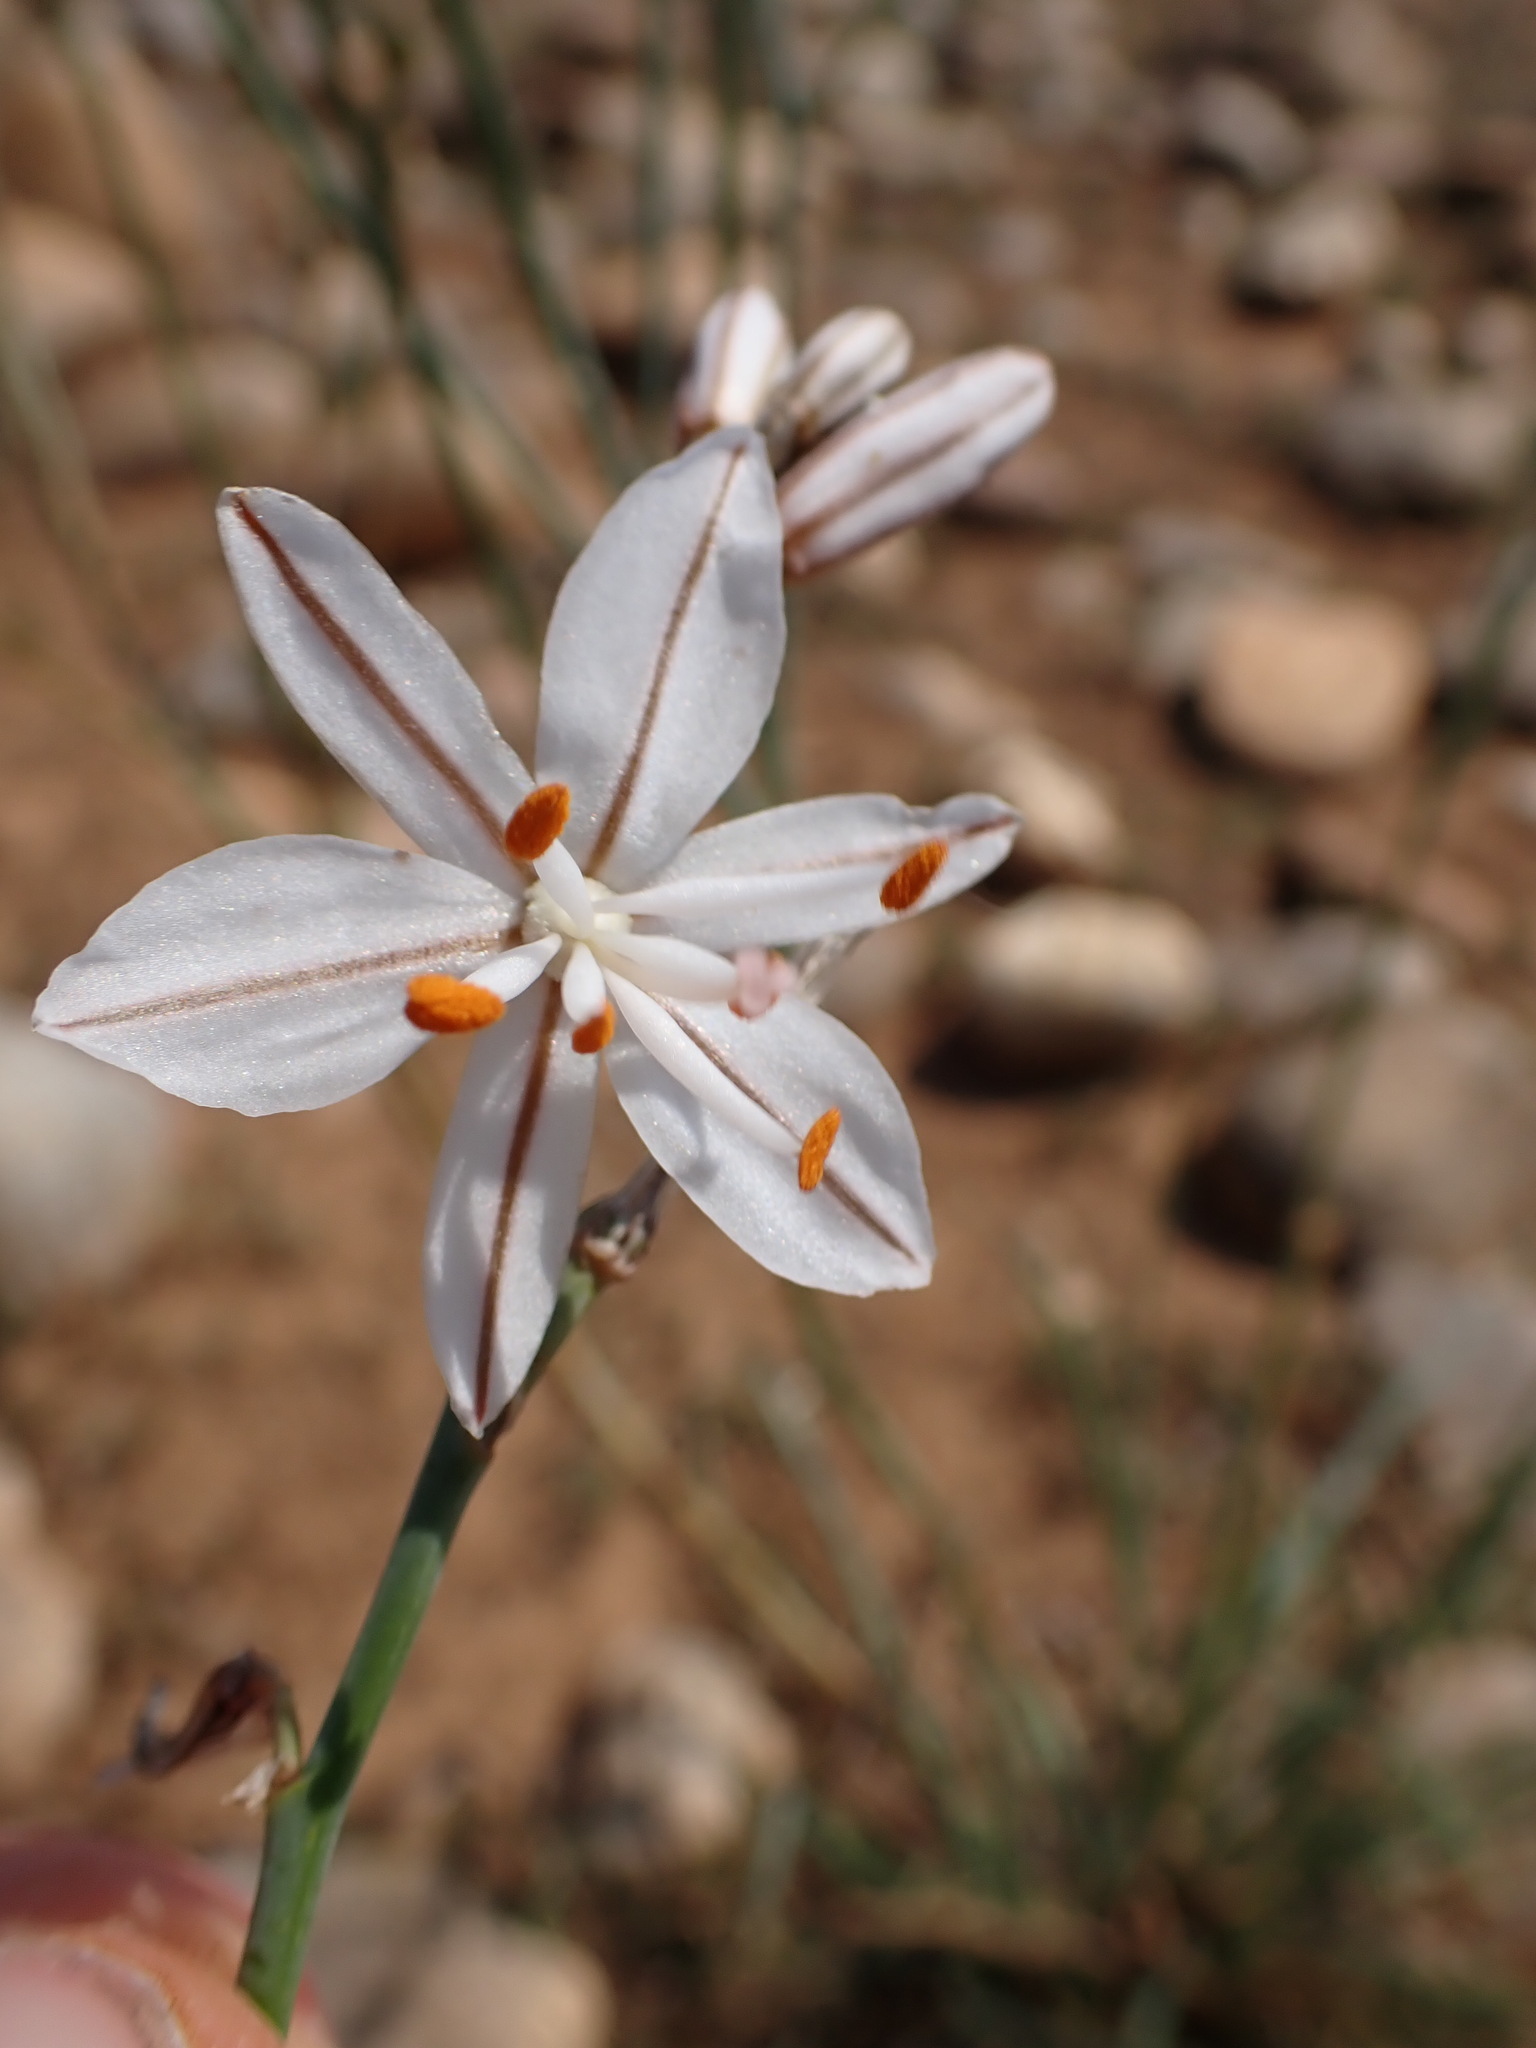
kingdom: Plantae
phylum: Tracheophyta
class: Liliopsida
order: Asparagales
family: Asphodelaceae
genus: Asphodelus
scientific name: Asphodelus ayardii
